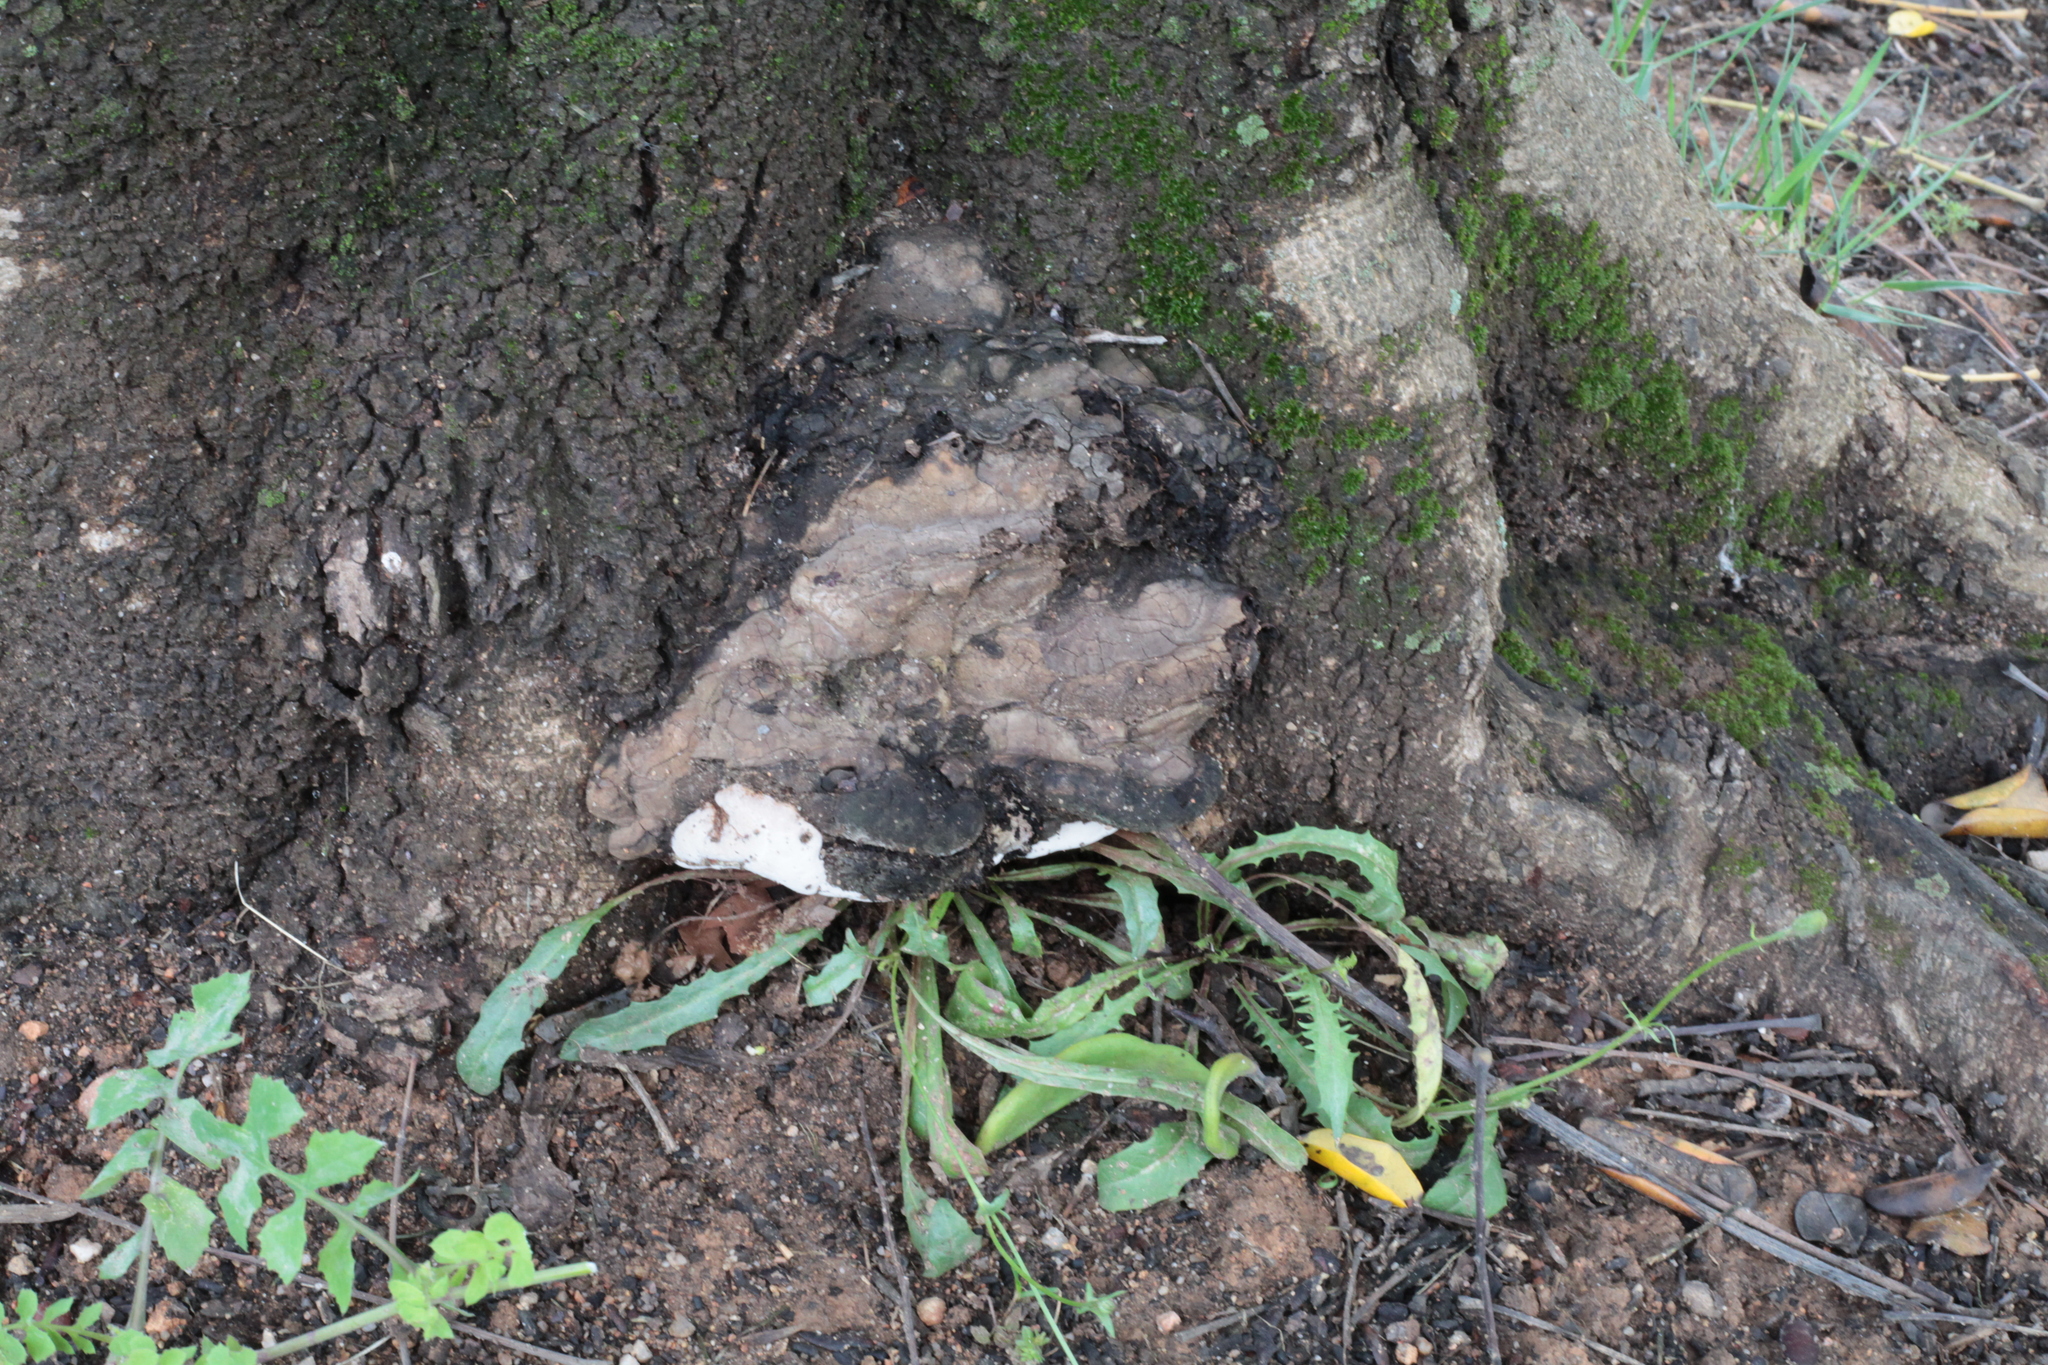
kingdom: Fungi
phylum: Basidiomycota
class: Agaricomycetes
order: Polyporales
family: Polyporaceae
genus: Ganoderma
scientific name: Ganoderma adspersum
